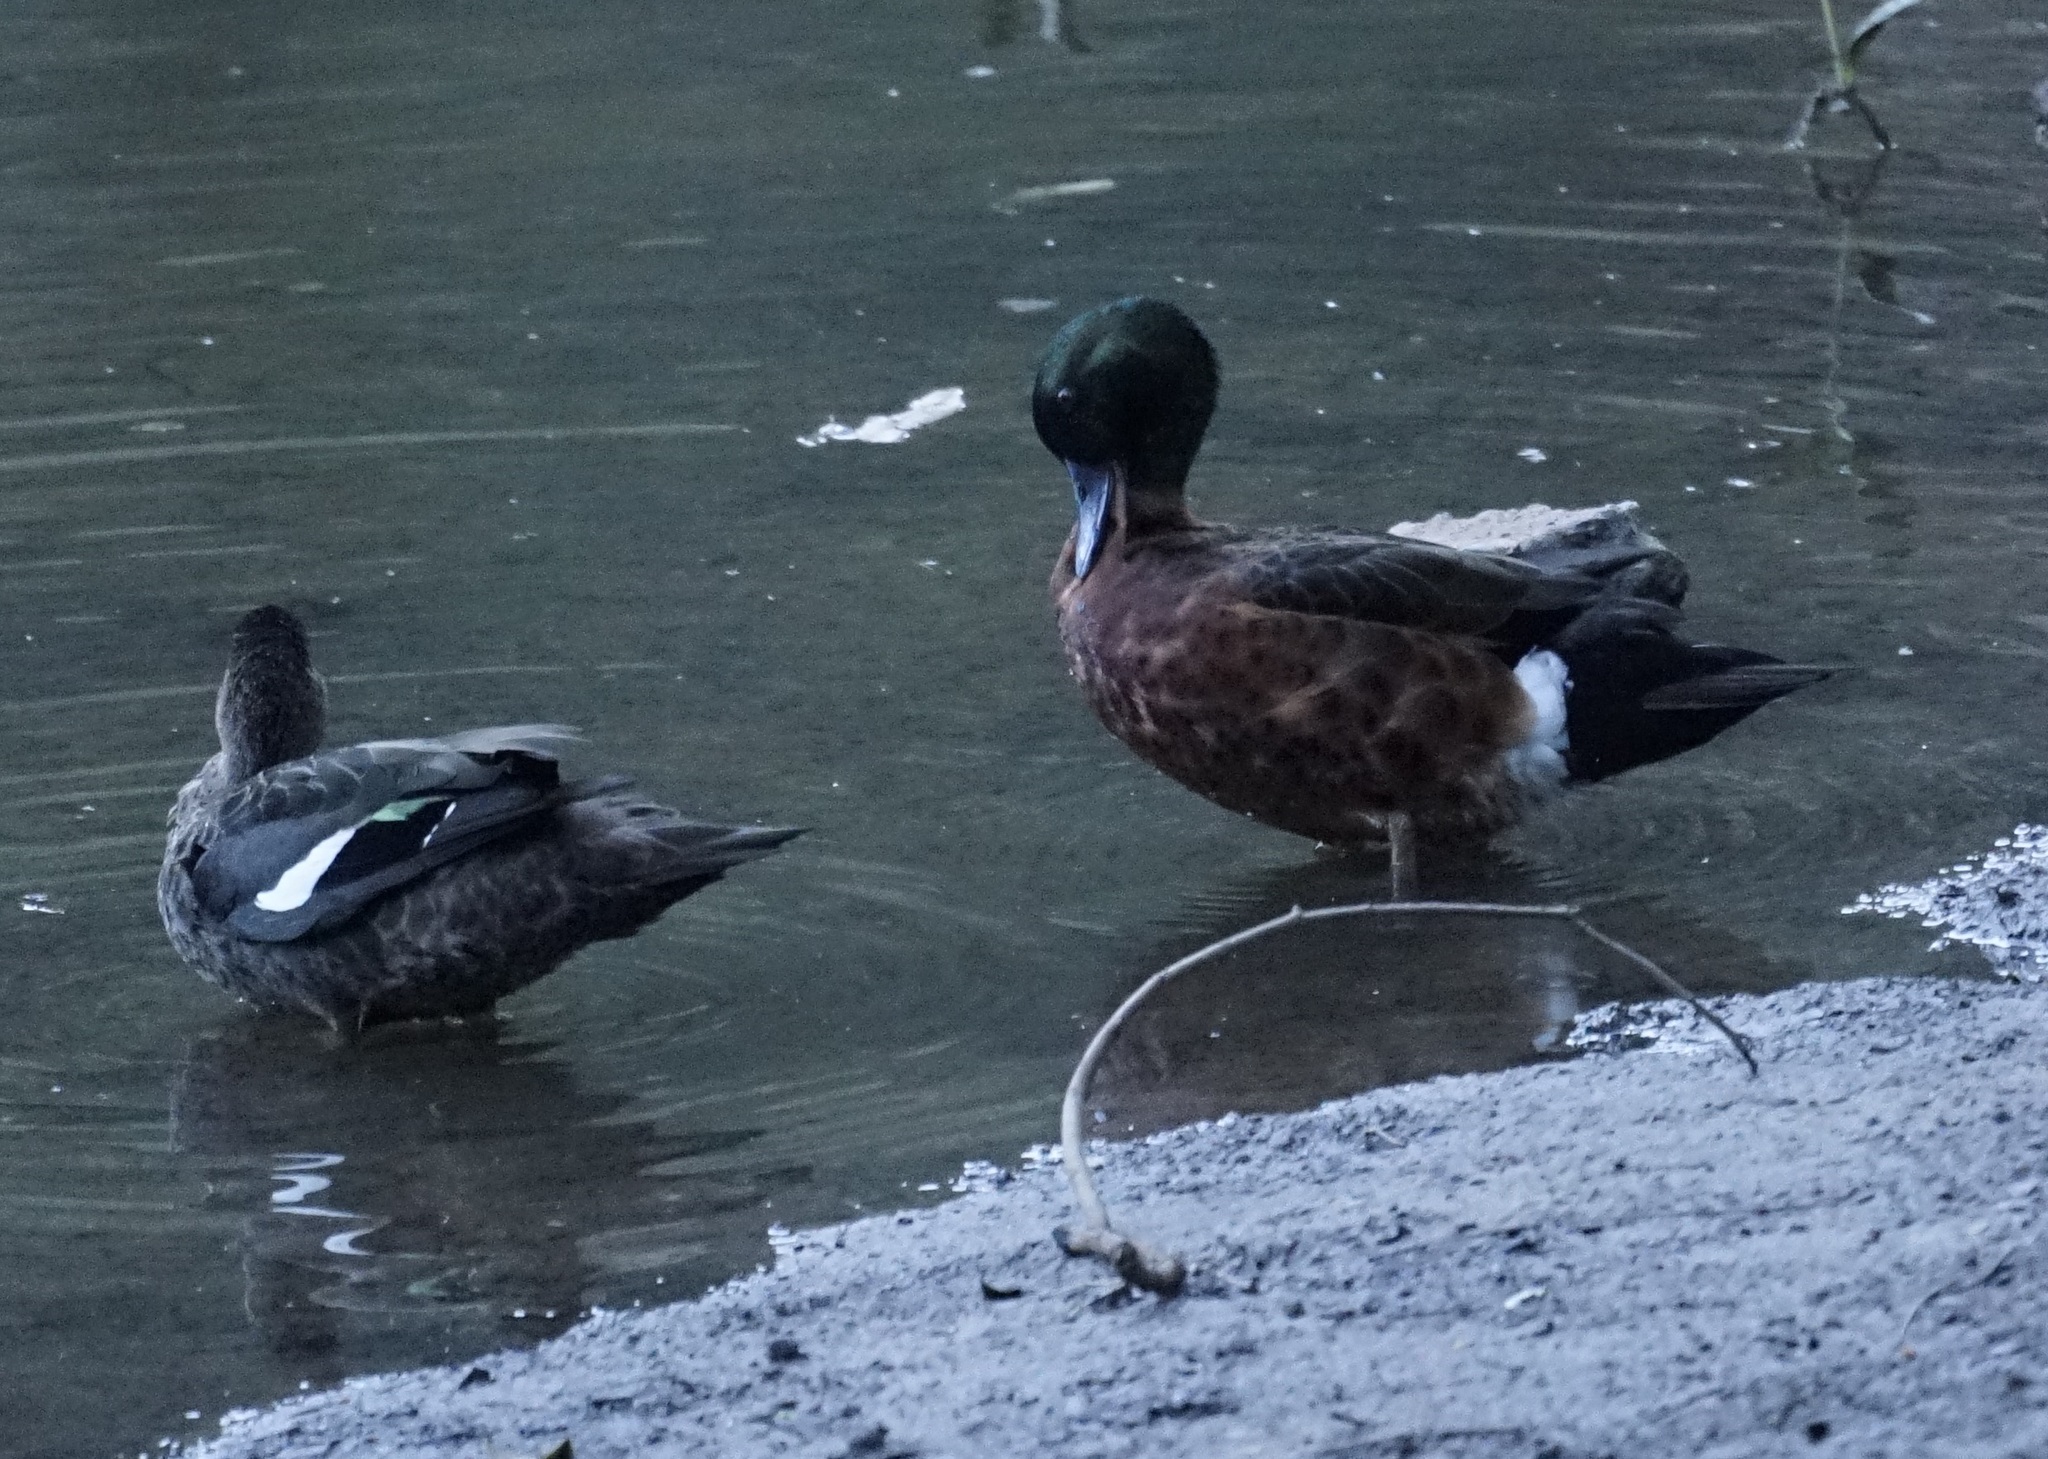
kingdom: Animalia
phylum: Chordata
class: Aves
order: Anseriformes
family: Anatidae
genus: Anas
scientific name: Anas castanea
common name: Chestnut teal
